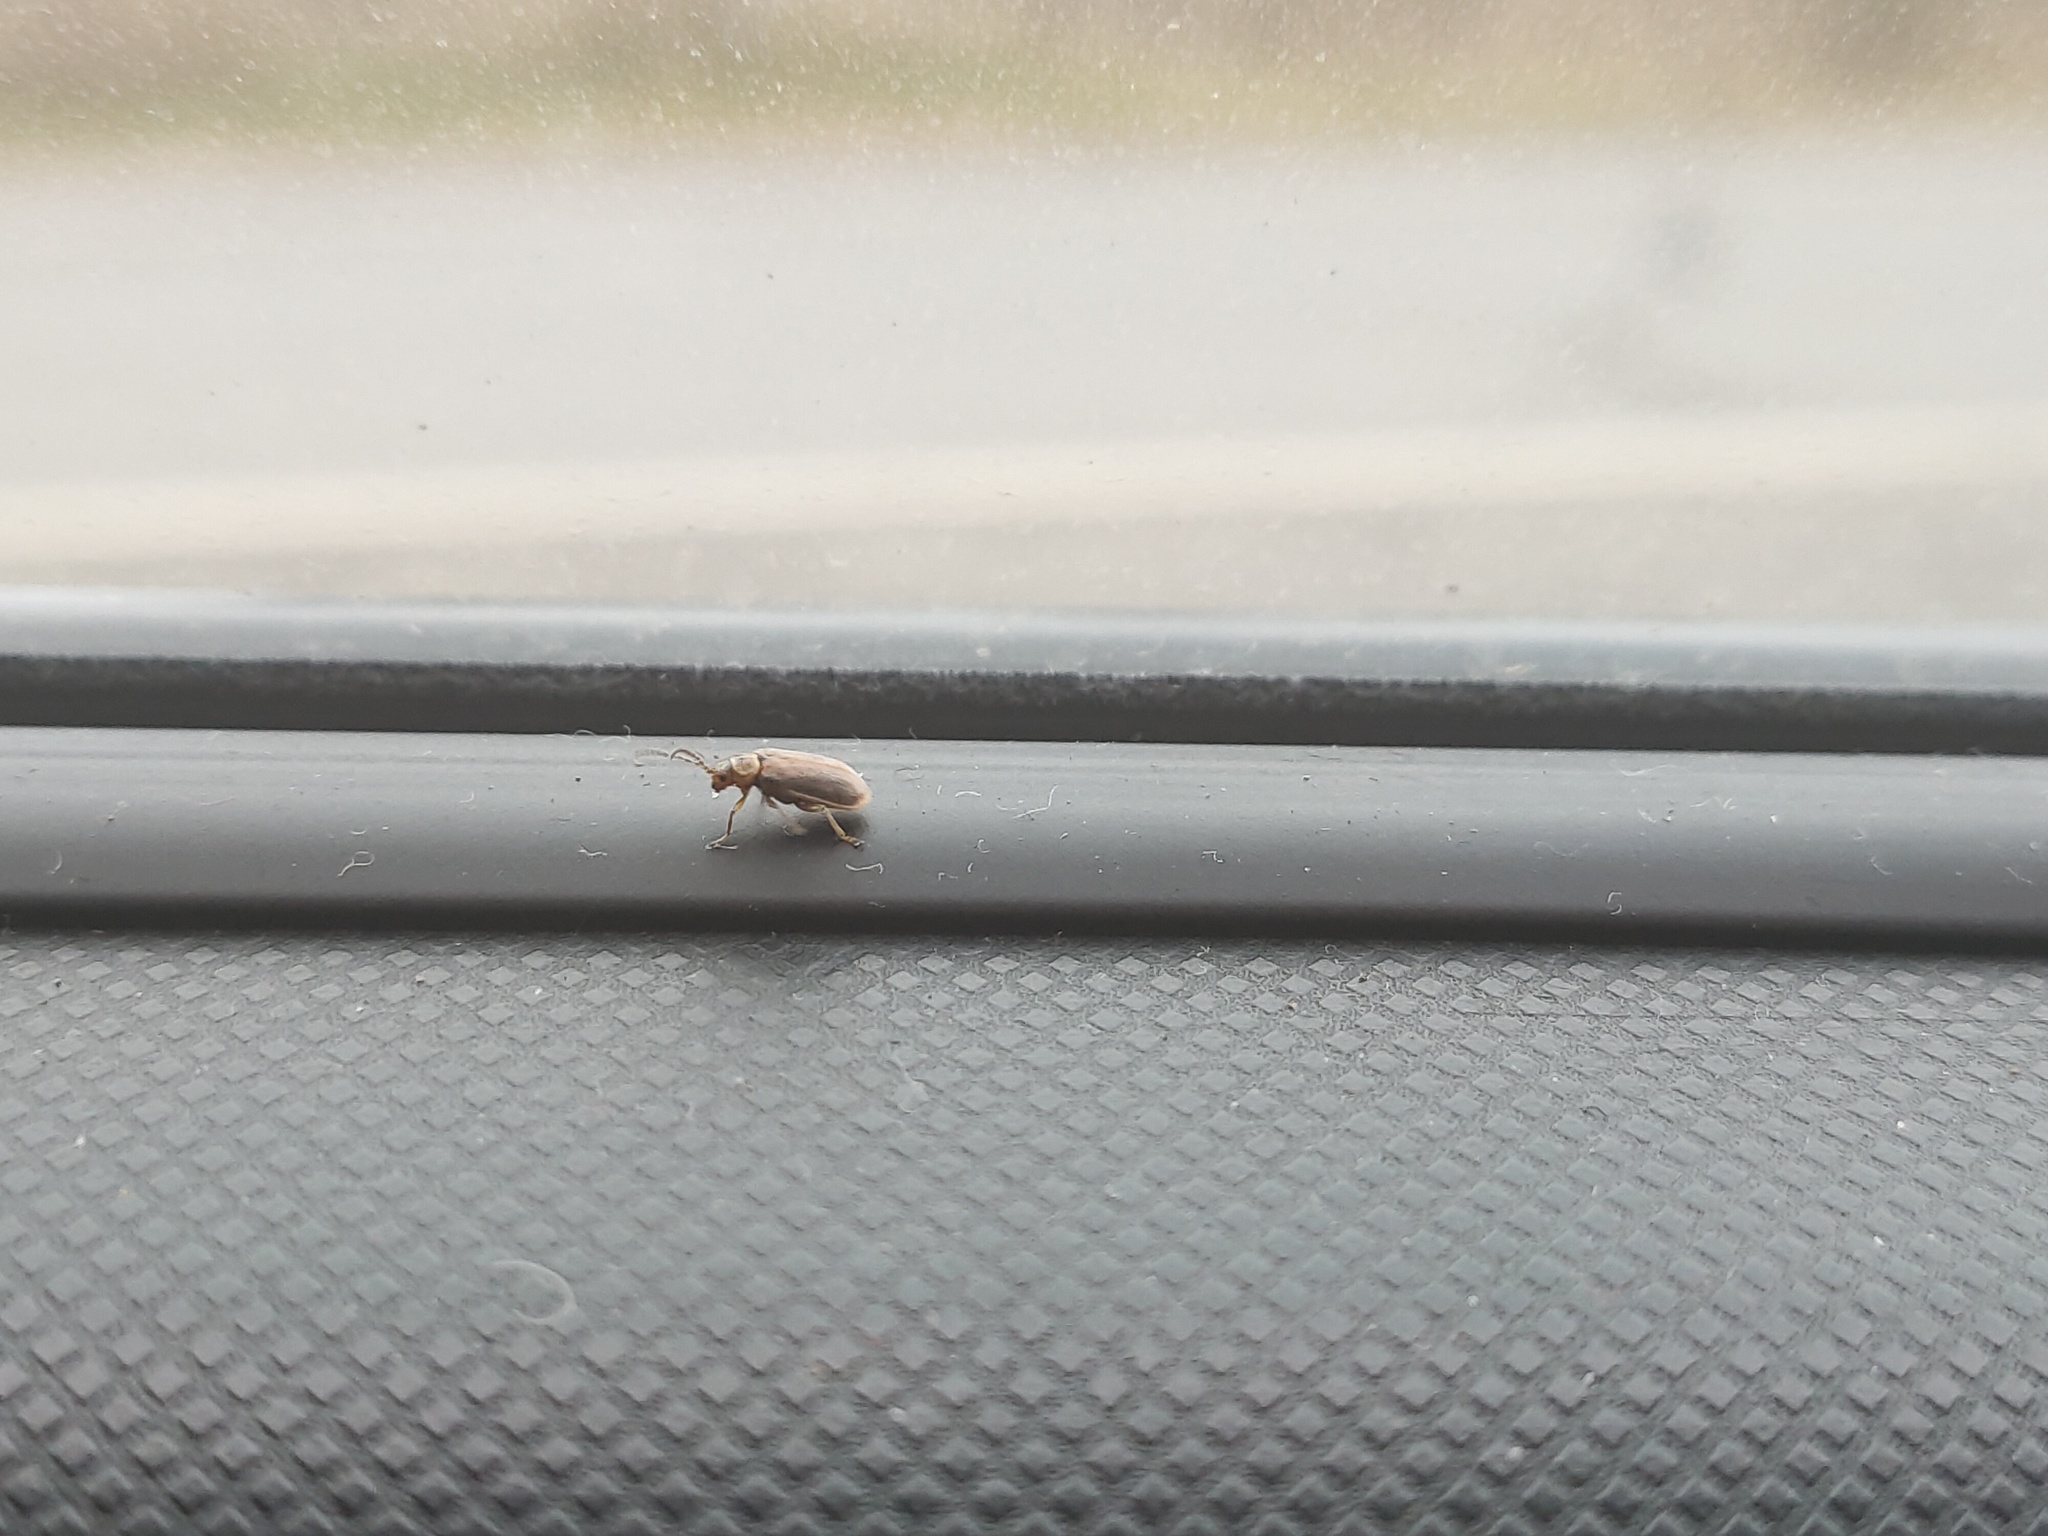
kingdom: Animalia
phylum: Arthropoda
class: Insecta
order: Coleoptera
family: Chrysomelidae
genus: Galerucella
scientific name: Galerucella lineola
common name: Brown willow beetle
